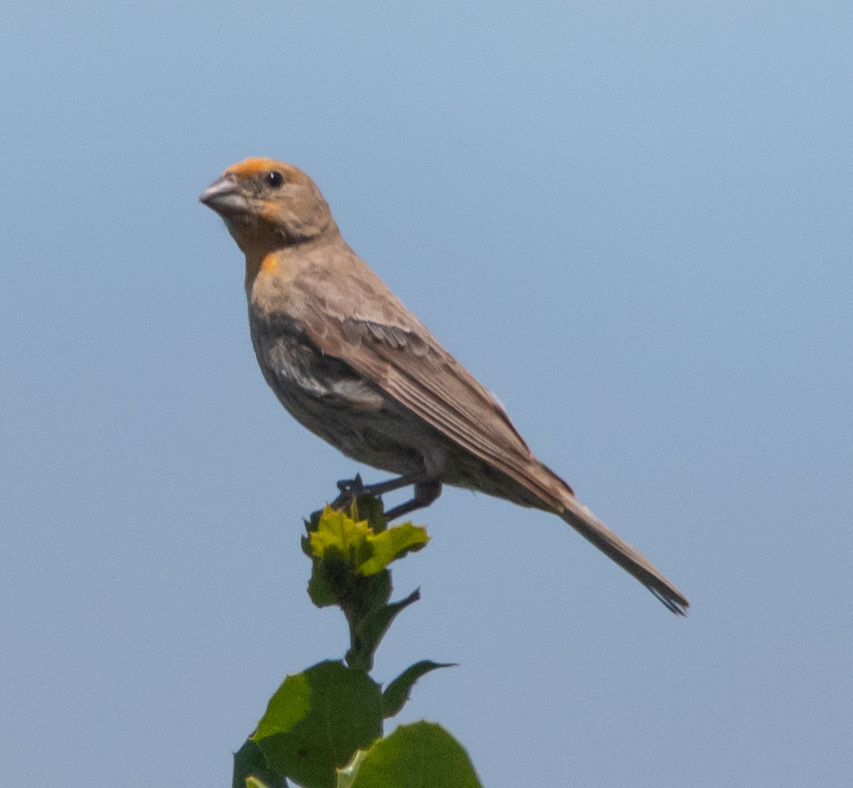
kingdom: Animalia
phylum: Chordata
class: Aves
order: Passeriformes
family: Fringillidae
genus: Haemorhous
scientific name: Haemorhous mexicanus
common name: House finch
